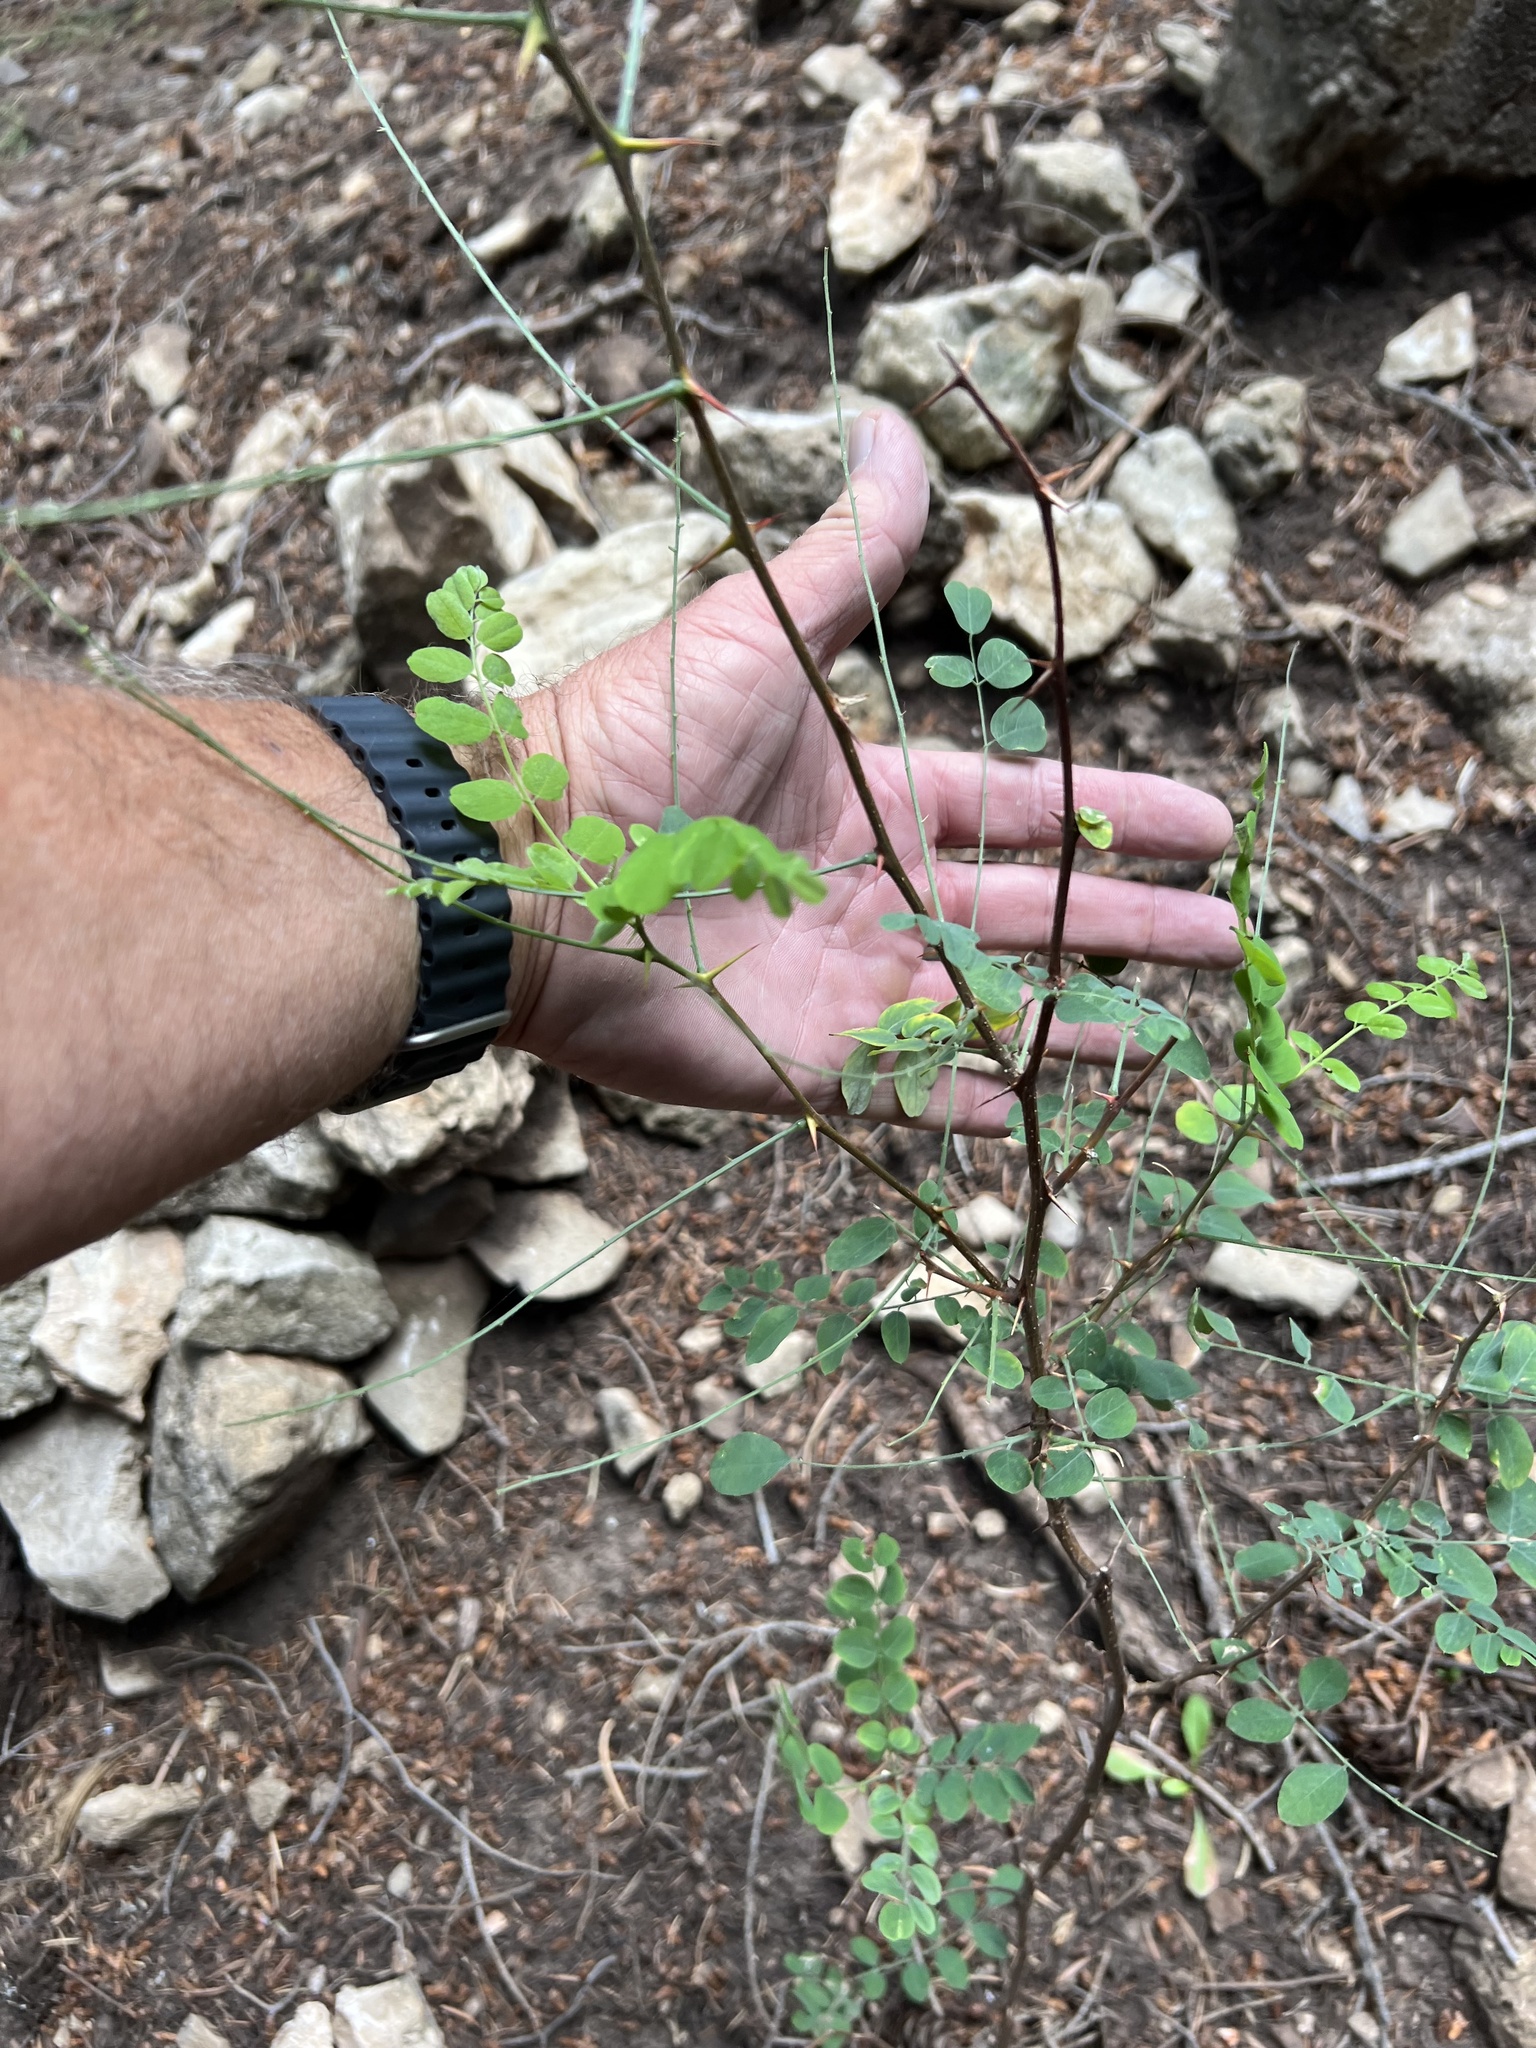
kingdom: Plantae
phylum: Tracheophyta
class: Magnoliopsida
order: Fabales
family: Fabaceae
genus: Robinia
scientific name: Robinia neomexicana
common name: New mexico locust
